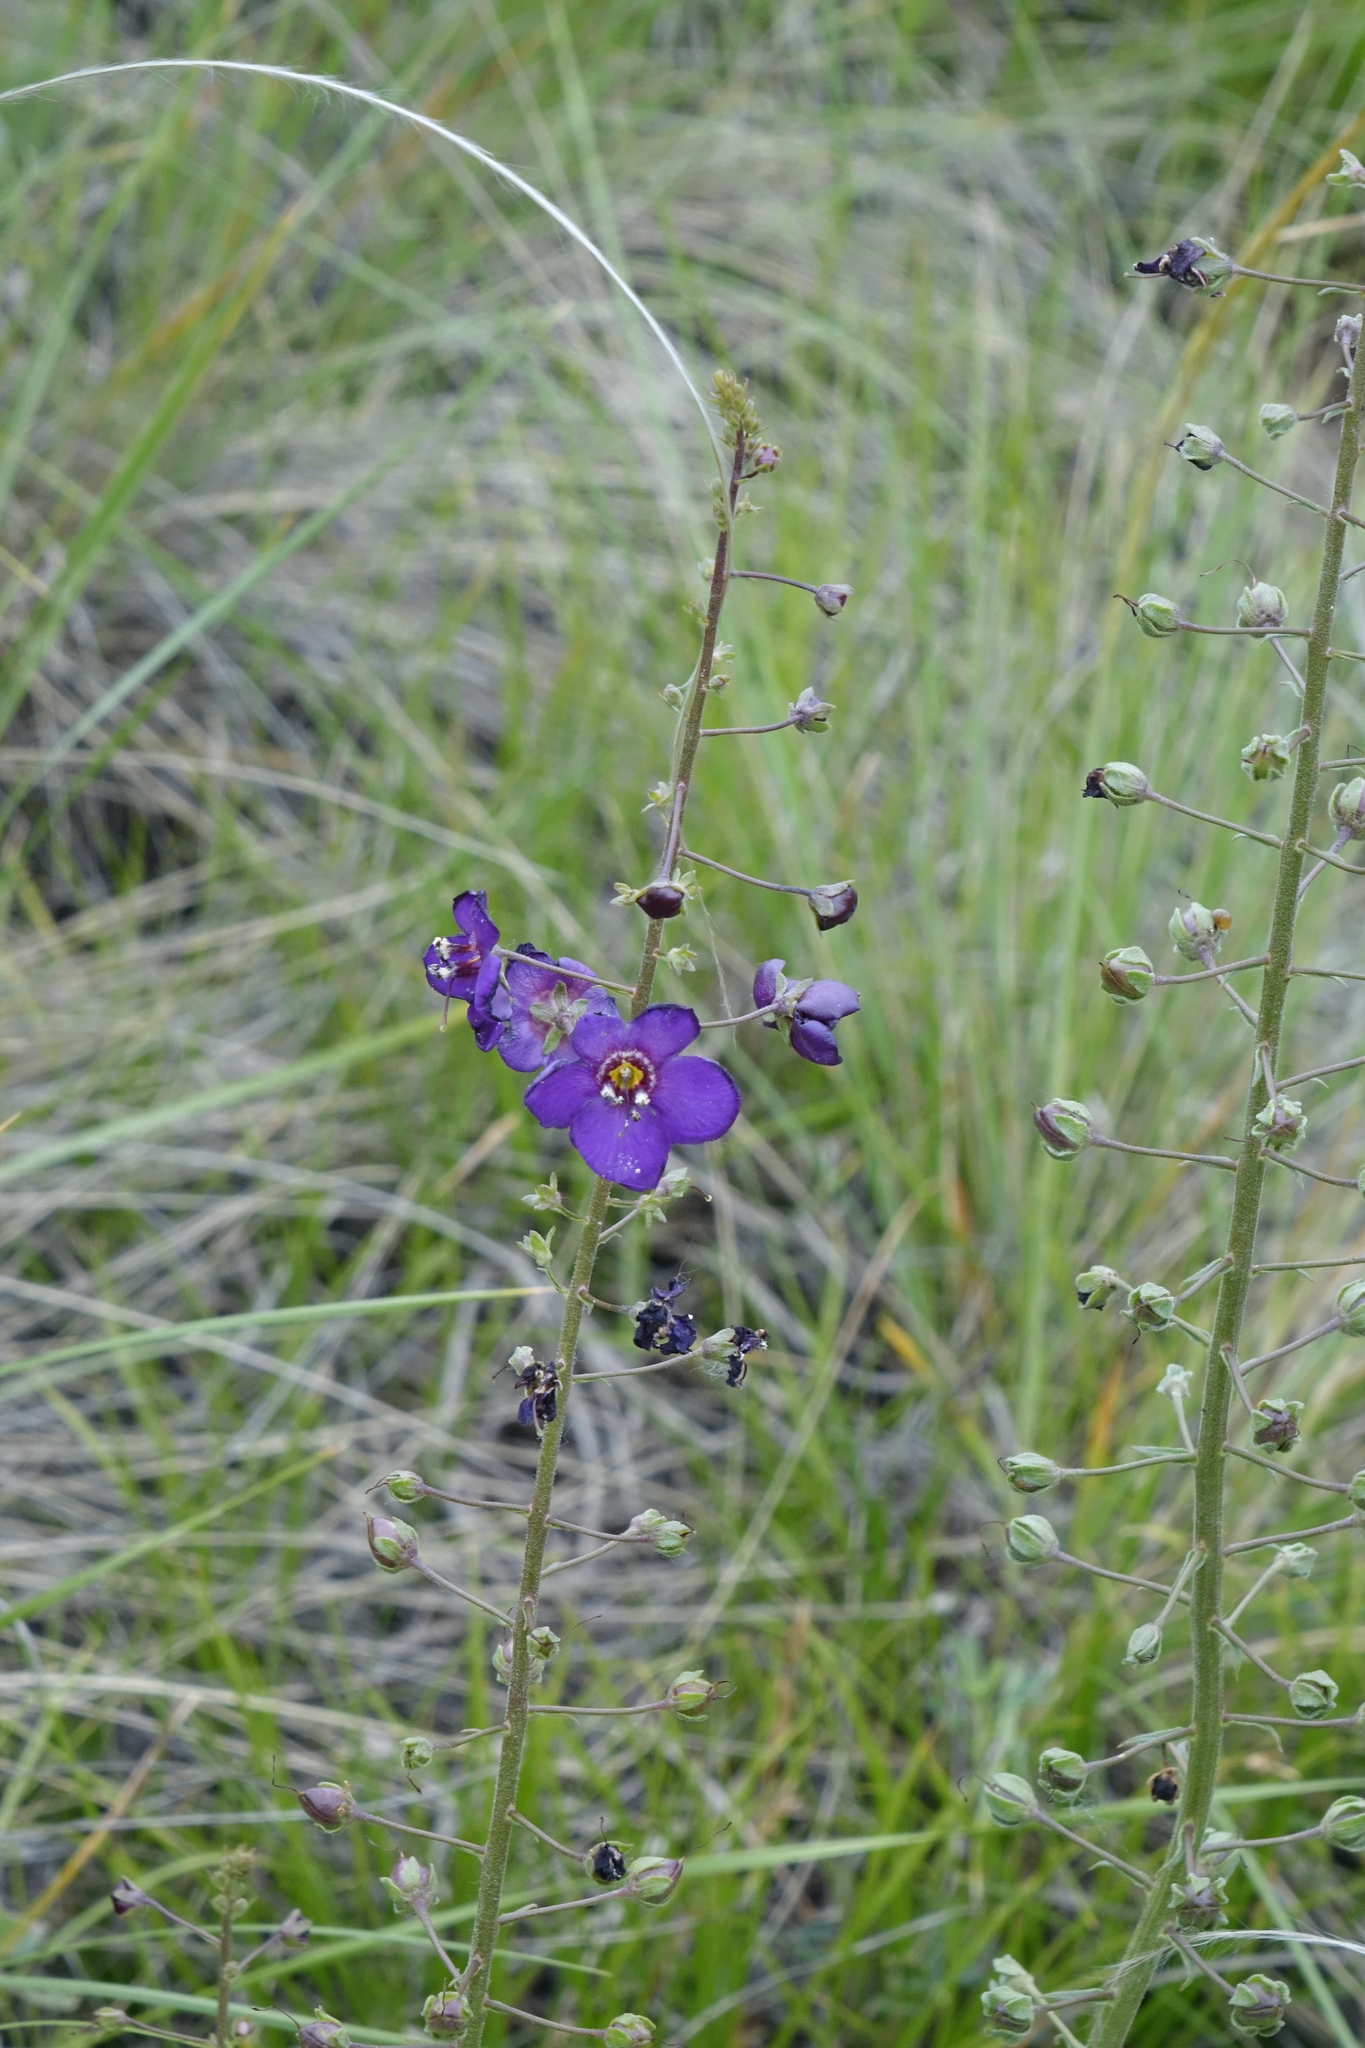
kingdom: Plantae
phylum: Tracheophyta
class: Magnoliopsida
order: Lamiales
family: Scrophulariaceae
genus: Verbascum
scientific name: Verbascum phoeniceum
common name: Purple mullein
